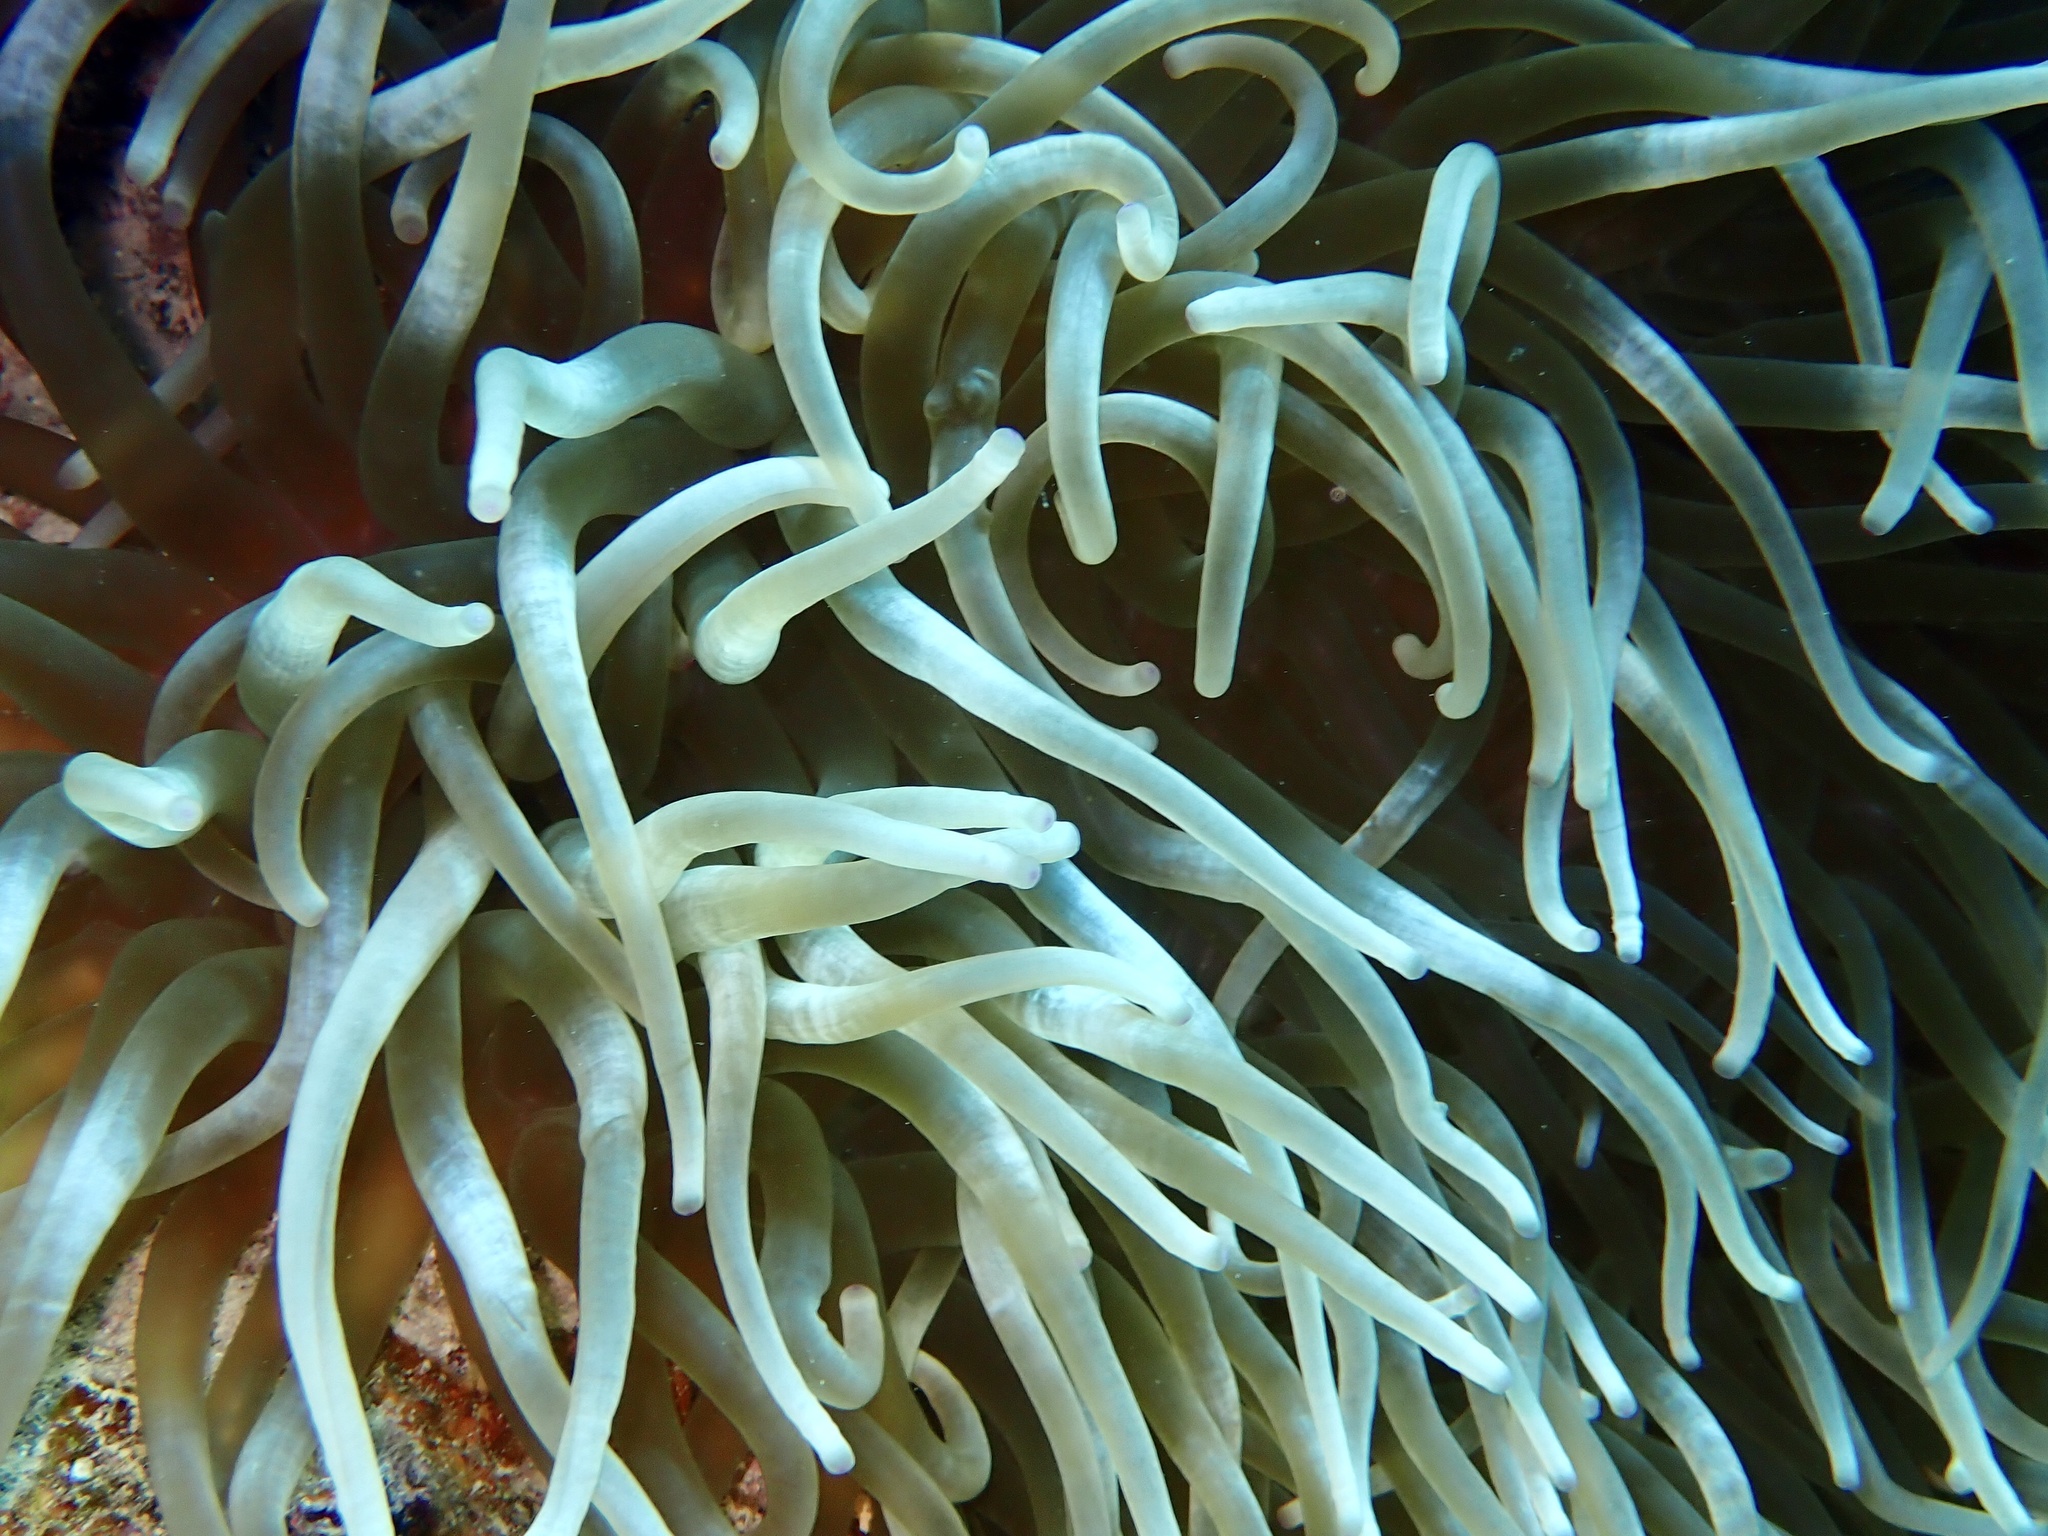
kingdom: Animalia
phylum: Cnidaria
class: Anthozoa
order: Actiniaria
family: Actiniidae
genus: Entacmaea
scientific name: Entacmaea quadricolor
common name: Bulb tentacle sea anemone
